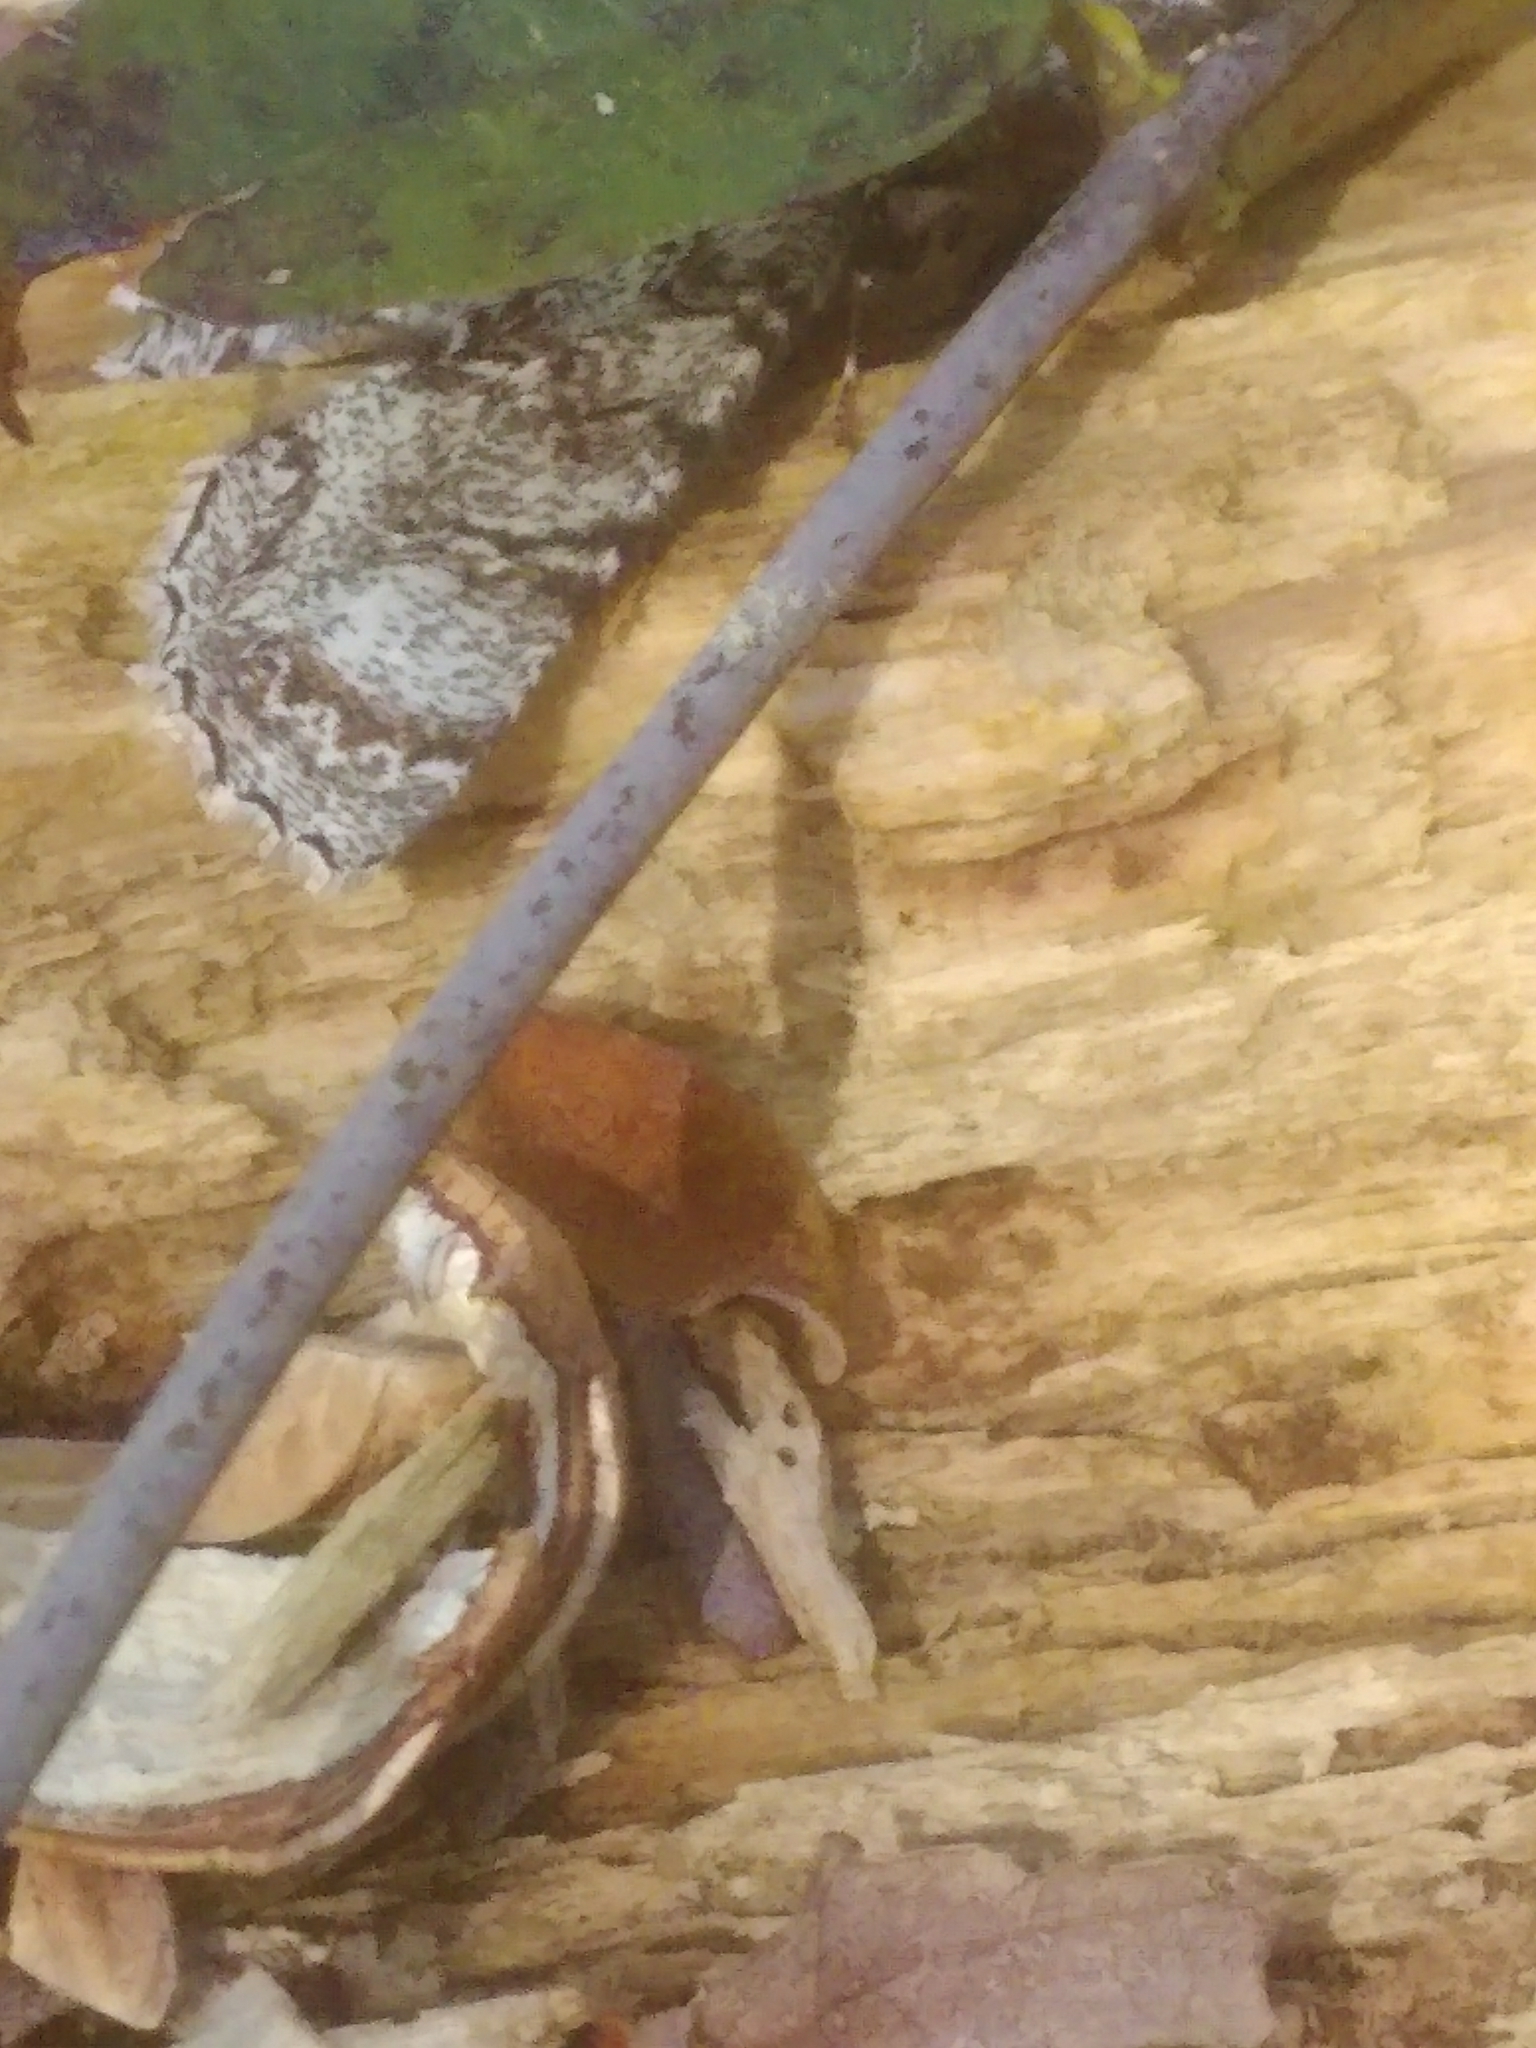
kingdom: Animalia
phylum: Arthropoda
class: Insecta
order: Lepidoptera
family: Geometridae
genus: Epimecis
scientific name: Epimecis hortaria
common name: Tulip-tree beauty
